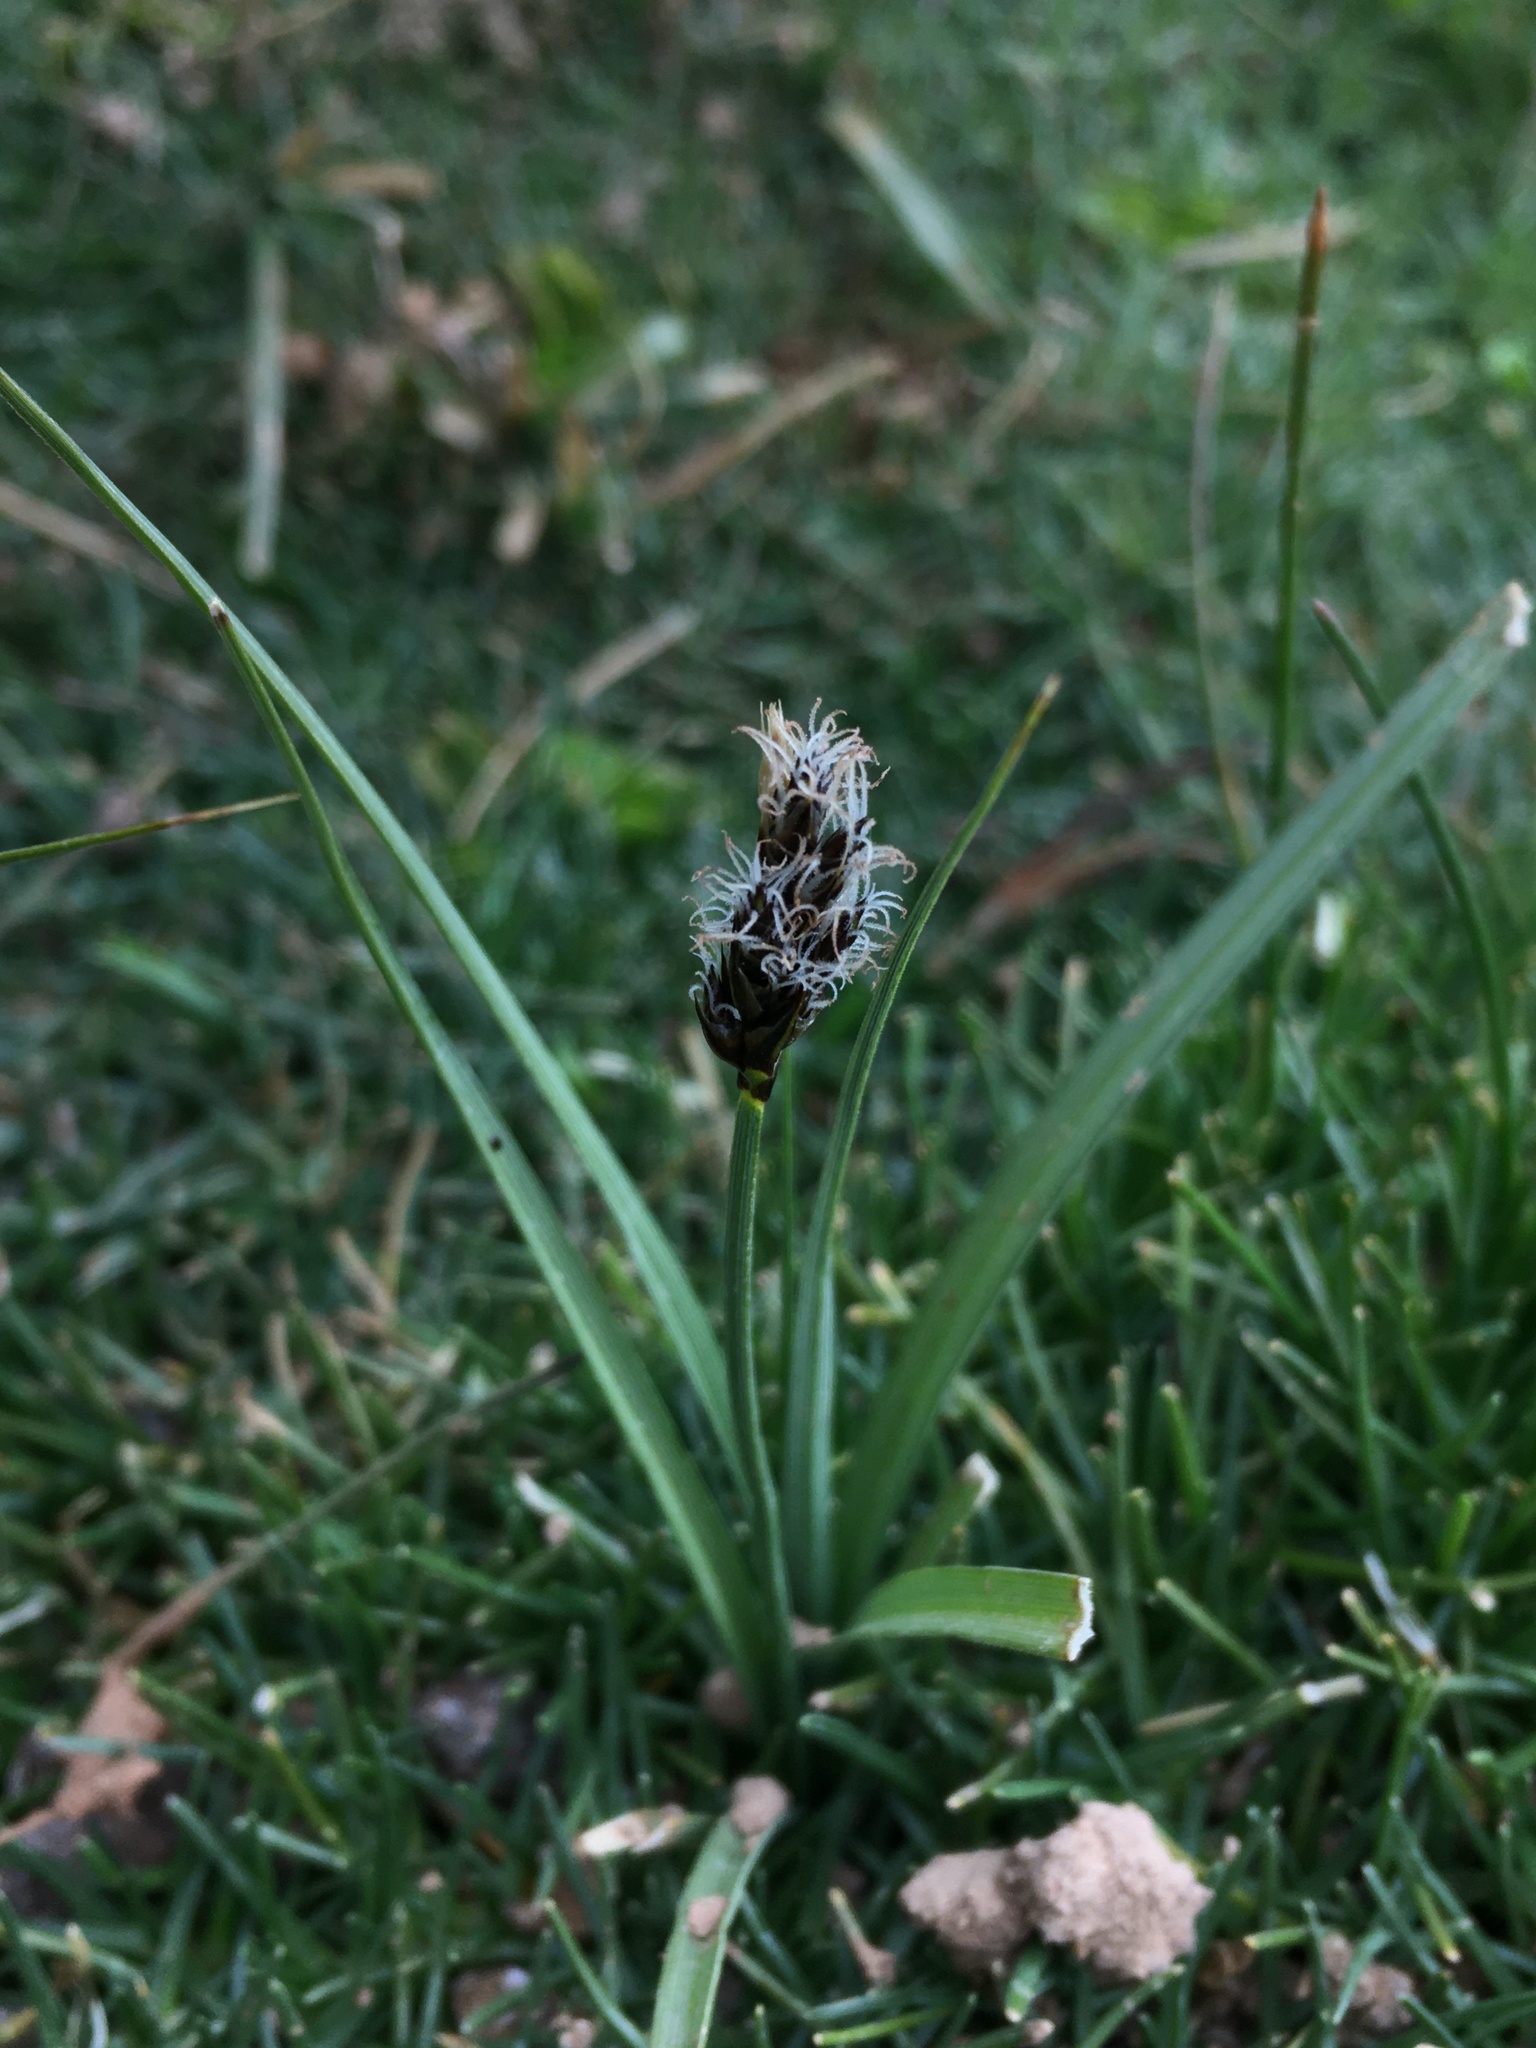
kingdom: Plantae
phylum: Tracheophyta
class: Liliopsida
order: Poales
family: Cyperaceae
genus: Carex
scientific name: Carex gayana
